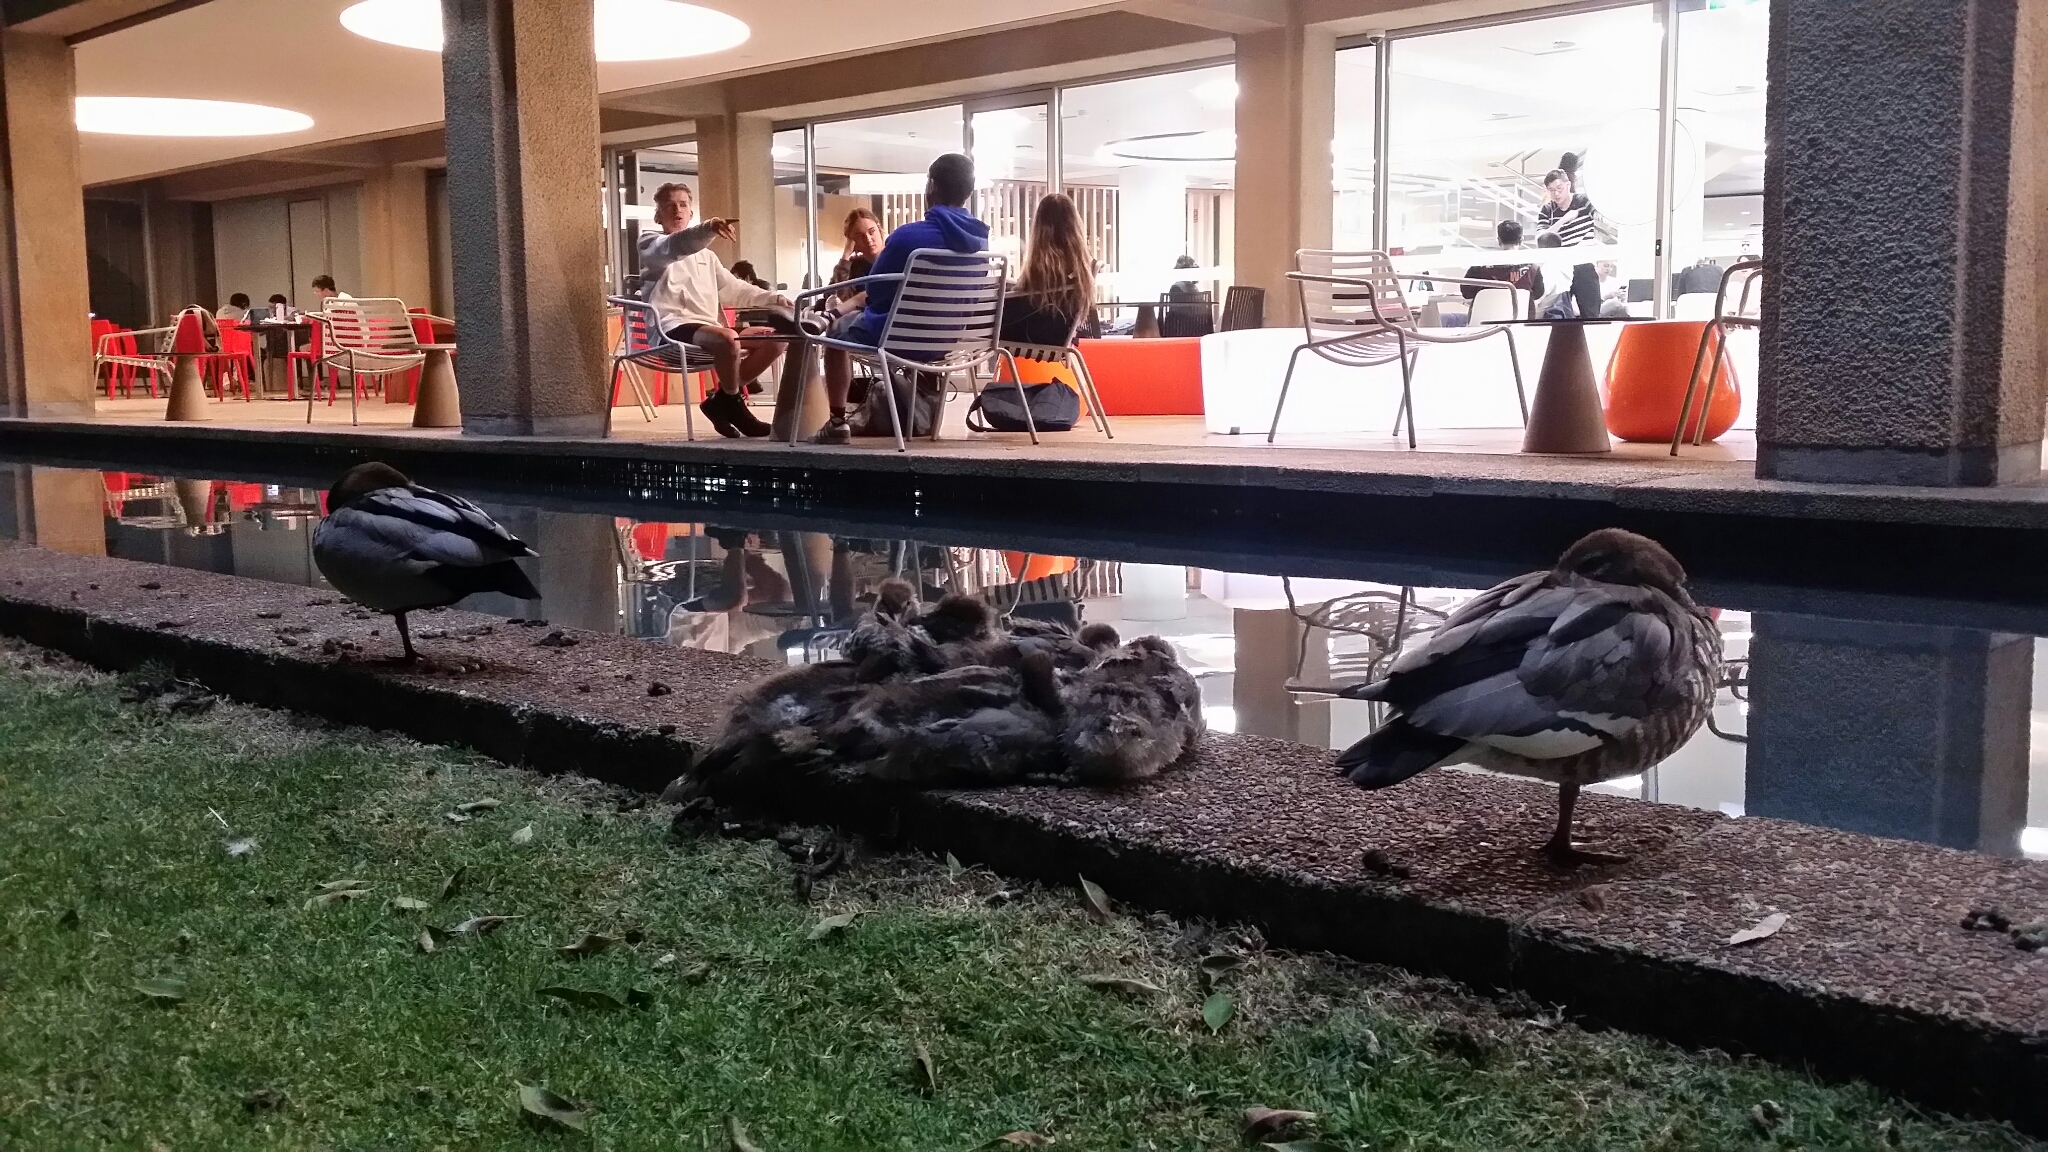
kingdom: Animalia
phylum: Chordata
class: Aves
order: Anseriformes
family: Anatidae
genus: Chenonetta
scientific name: Chenonetta jubata
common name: Maned duck
